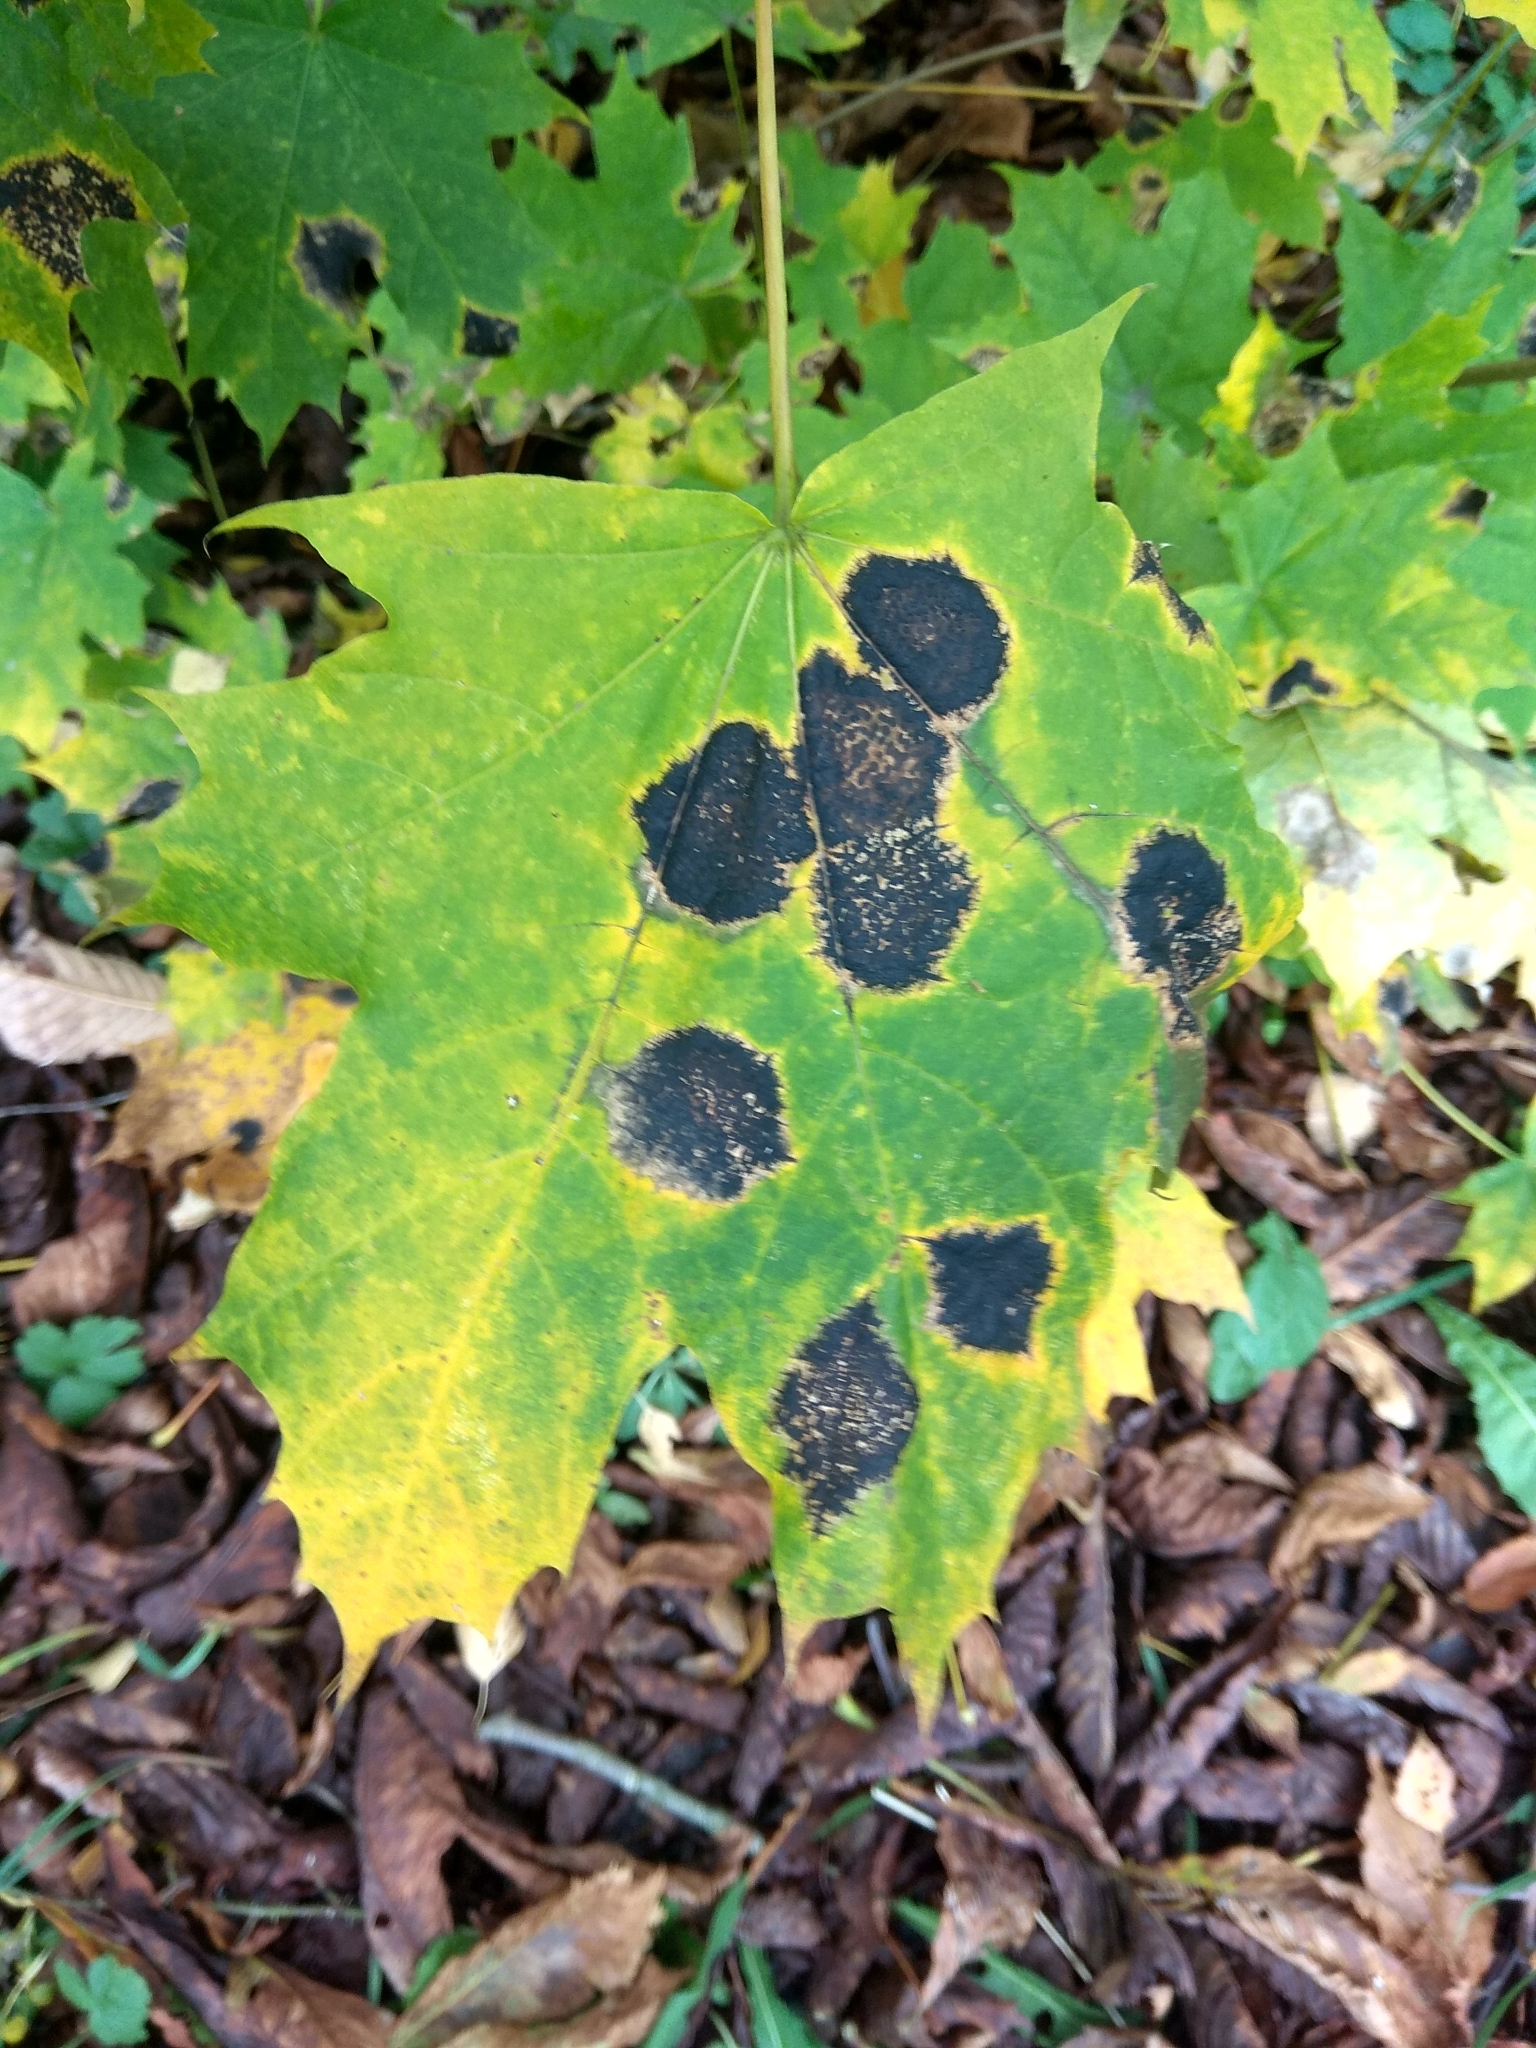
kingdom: Fungi
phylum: Ascomycota
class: Leotiomycetes
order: Rhytismatales
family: Rhytismataceae
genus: Rhytisma
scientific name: Rhytisma acerinum
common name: European tar spot
